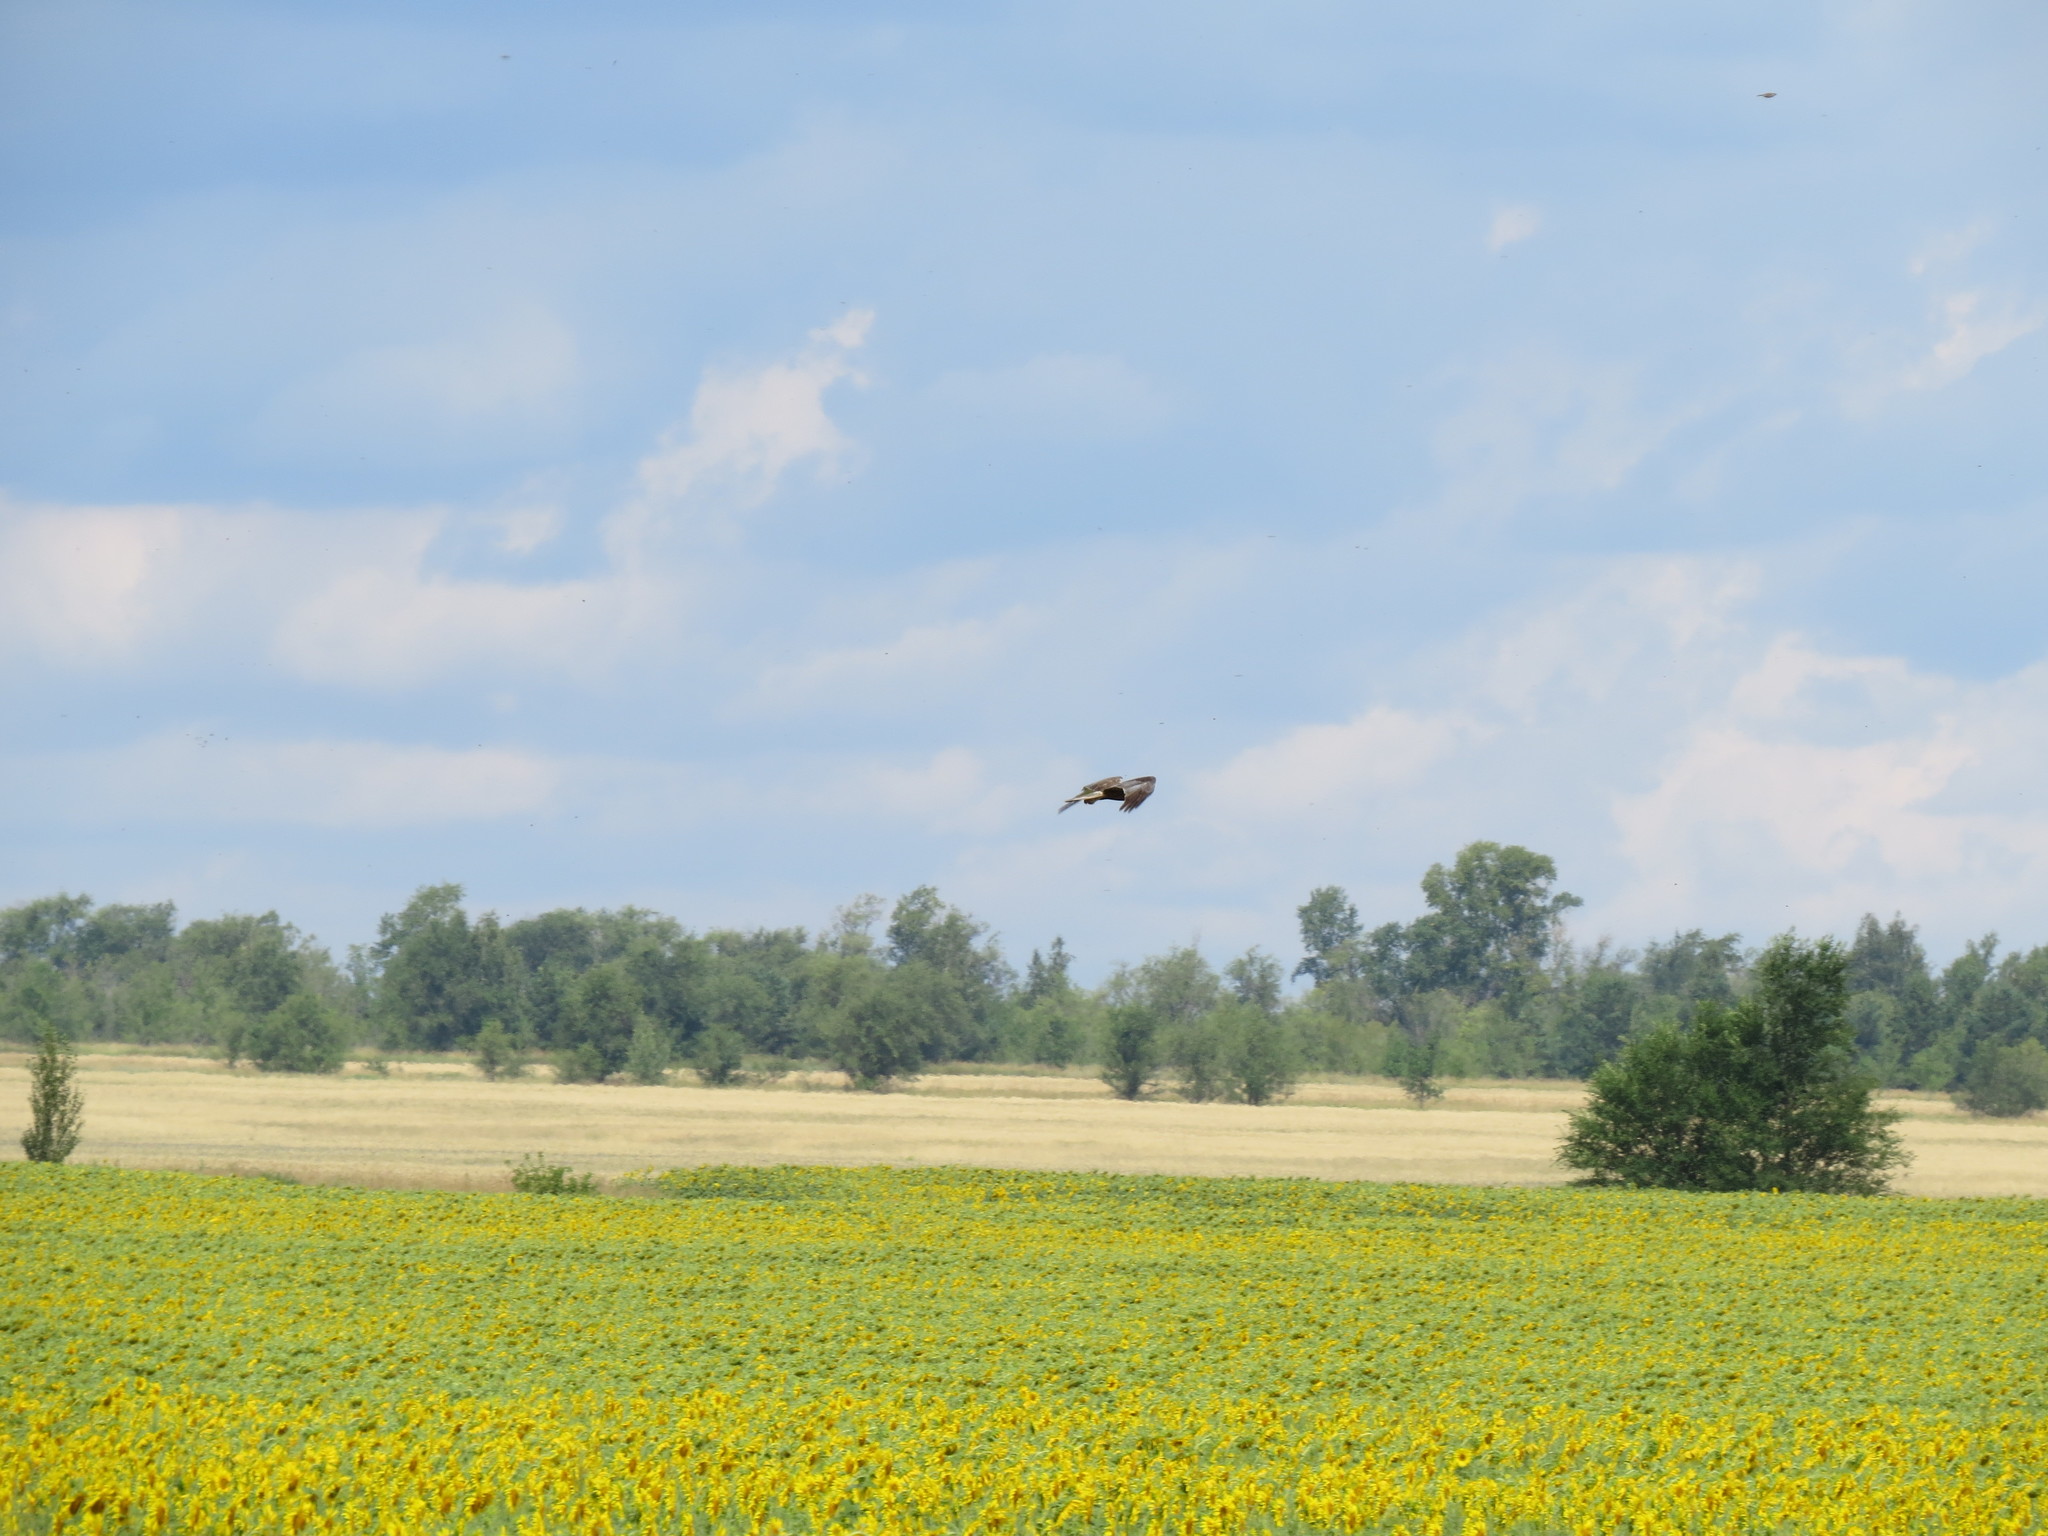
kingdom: Animalia
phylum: Chordata
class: Aves
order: Accipitriformes
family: Accipitridae
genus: Circus
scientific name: Circus aeruginosus
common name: Western marsh harrier
